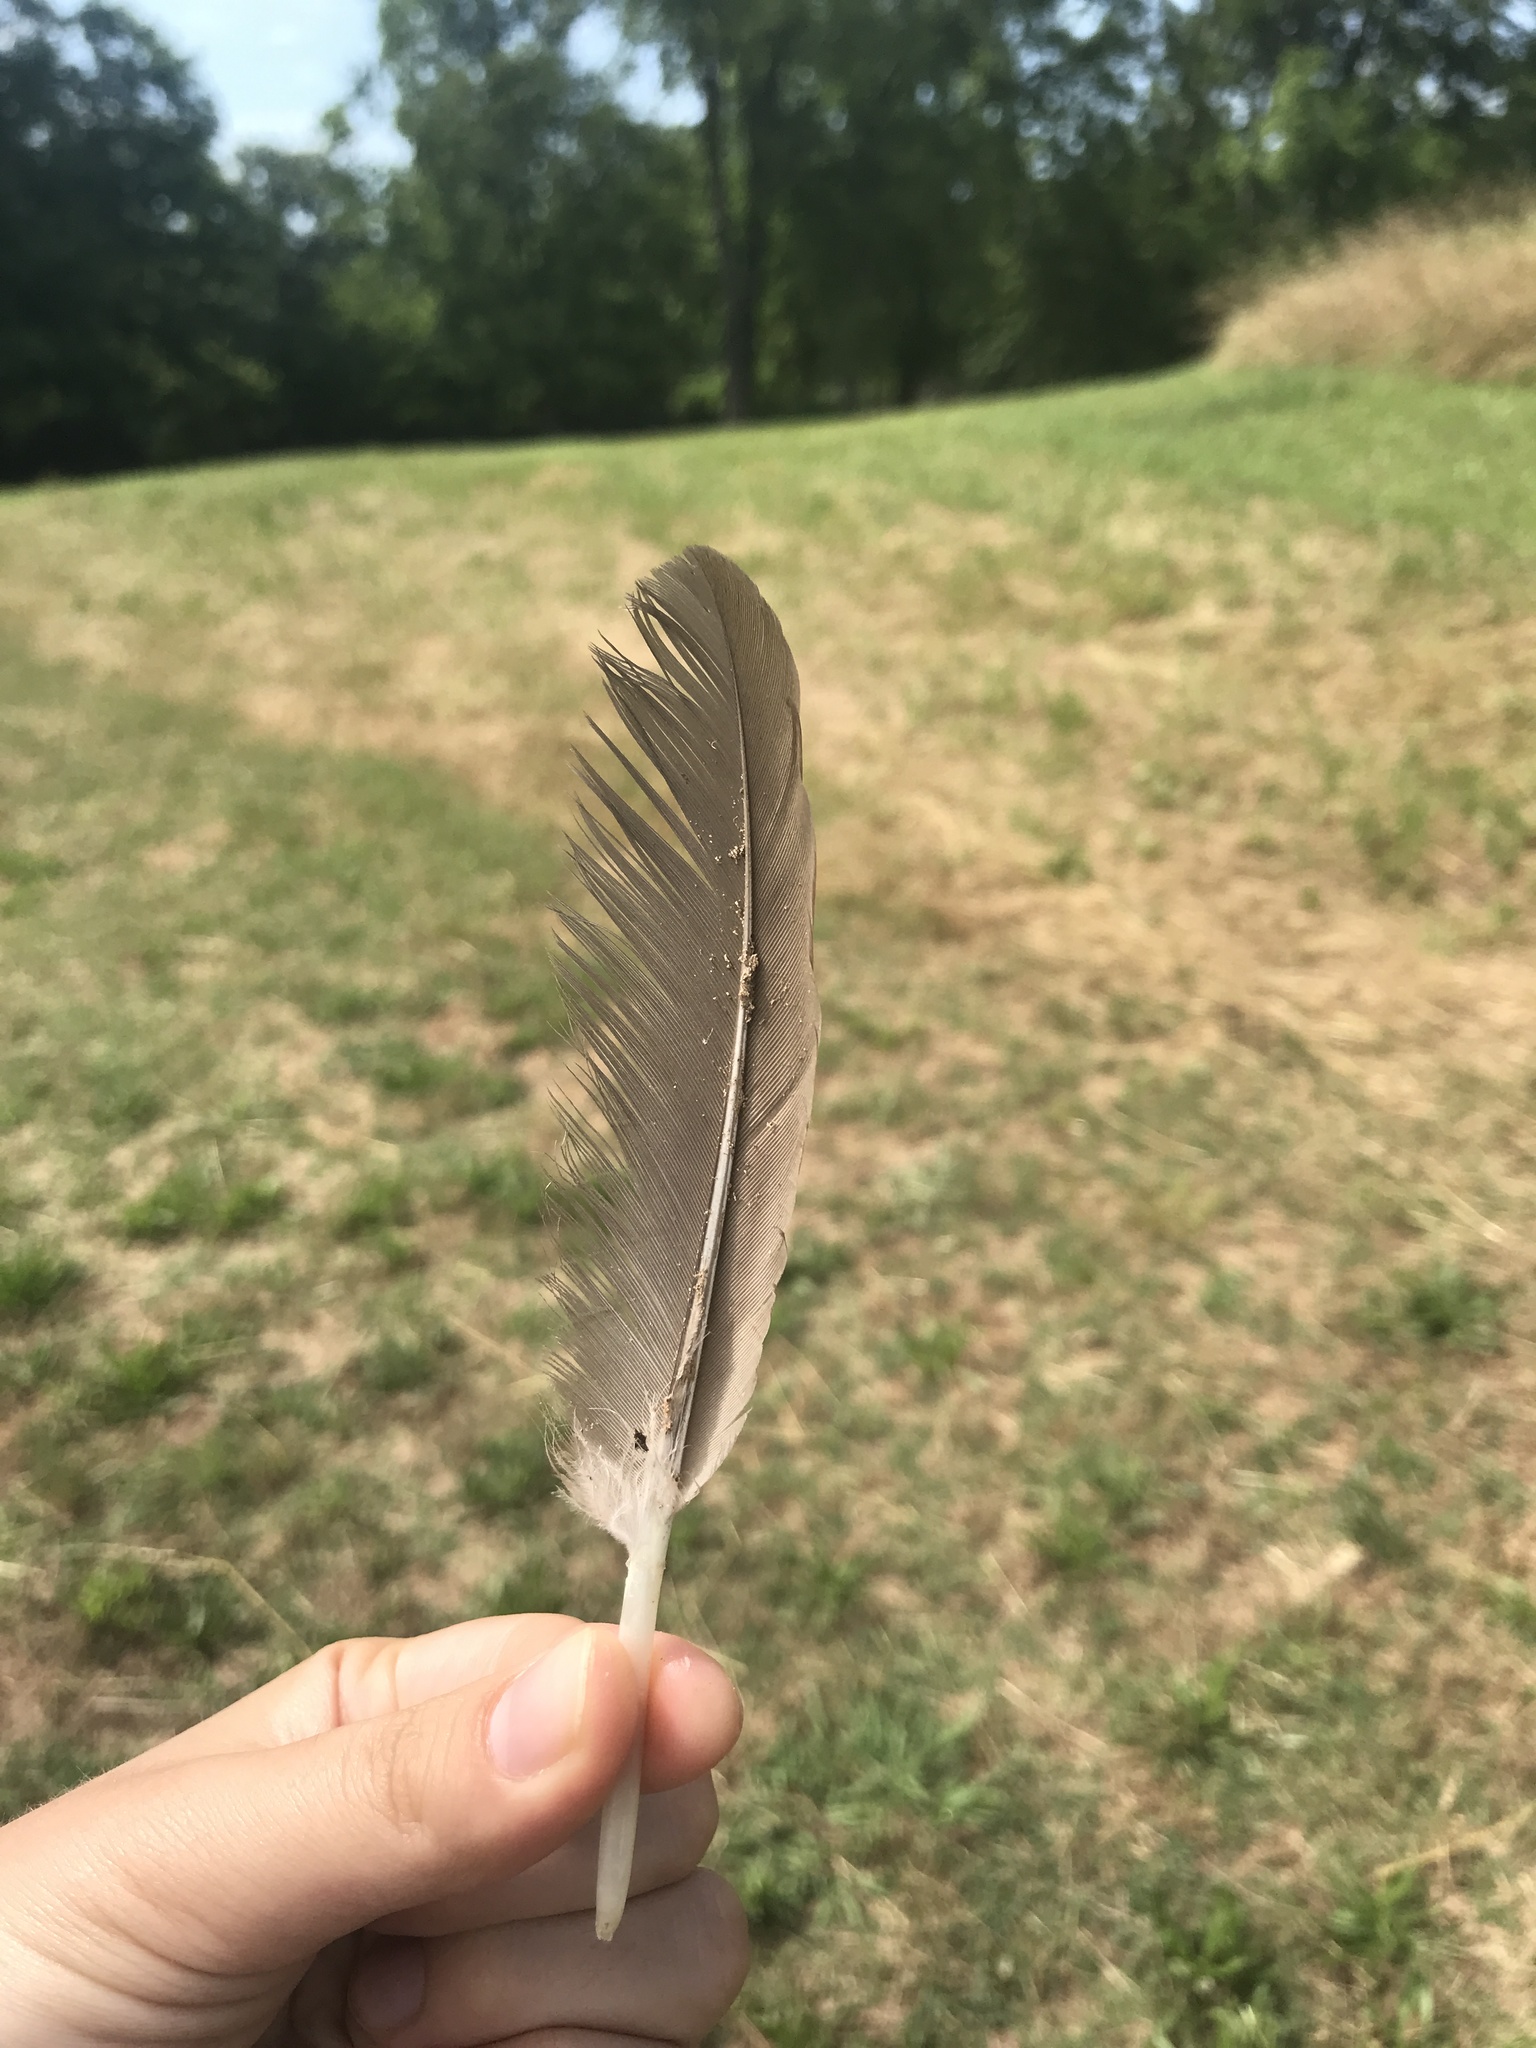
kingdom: Animalia
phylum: Chordata
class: Aves
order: Anseriformes
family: Anatidae
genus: Branta
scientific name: Branta canadensis
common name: Canada goose
